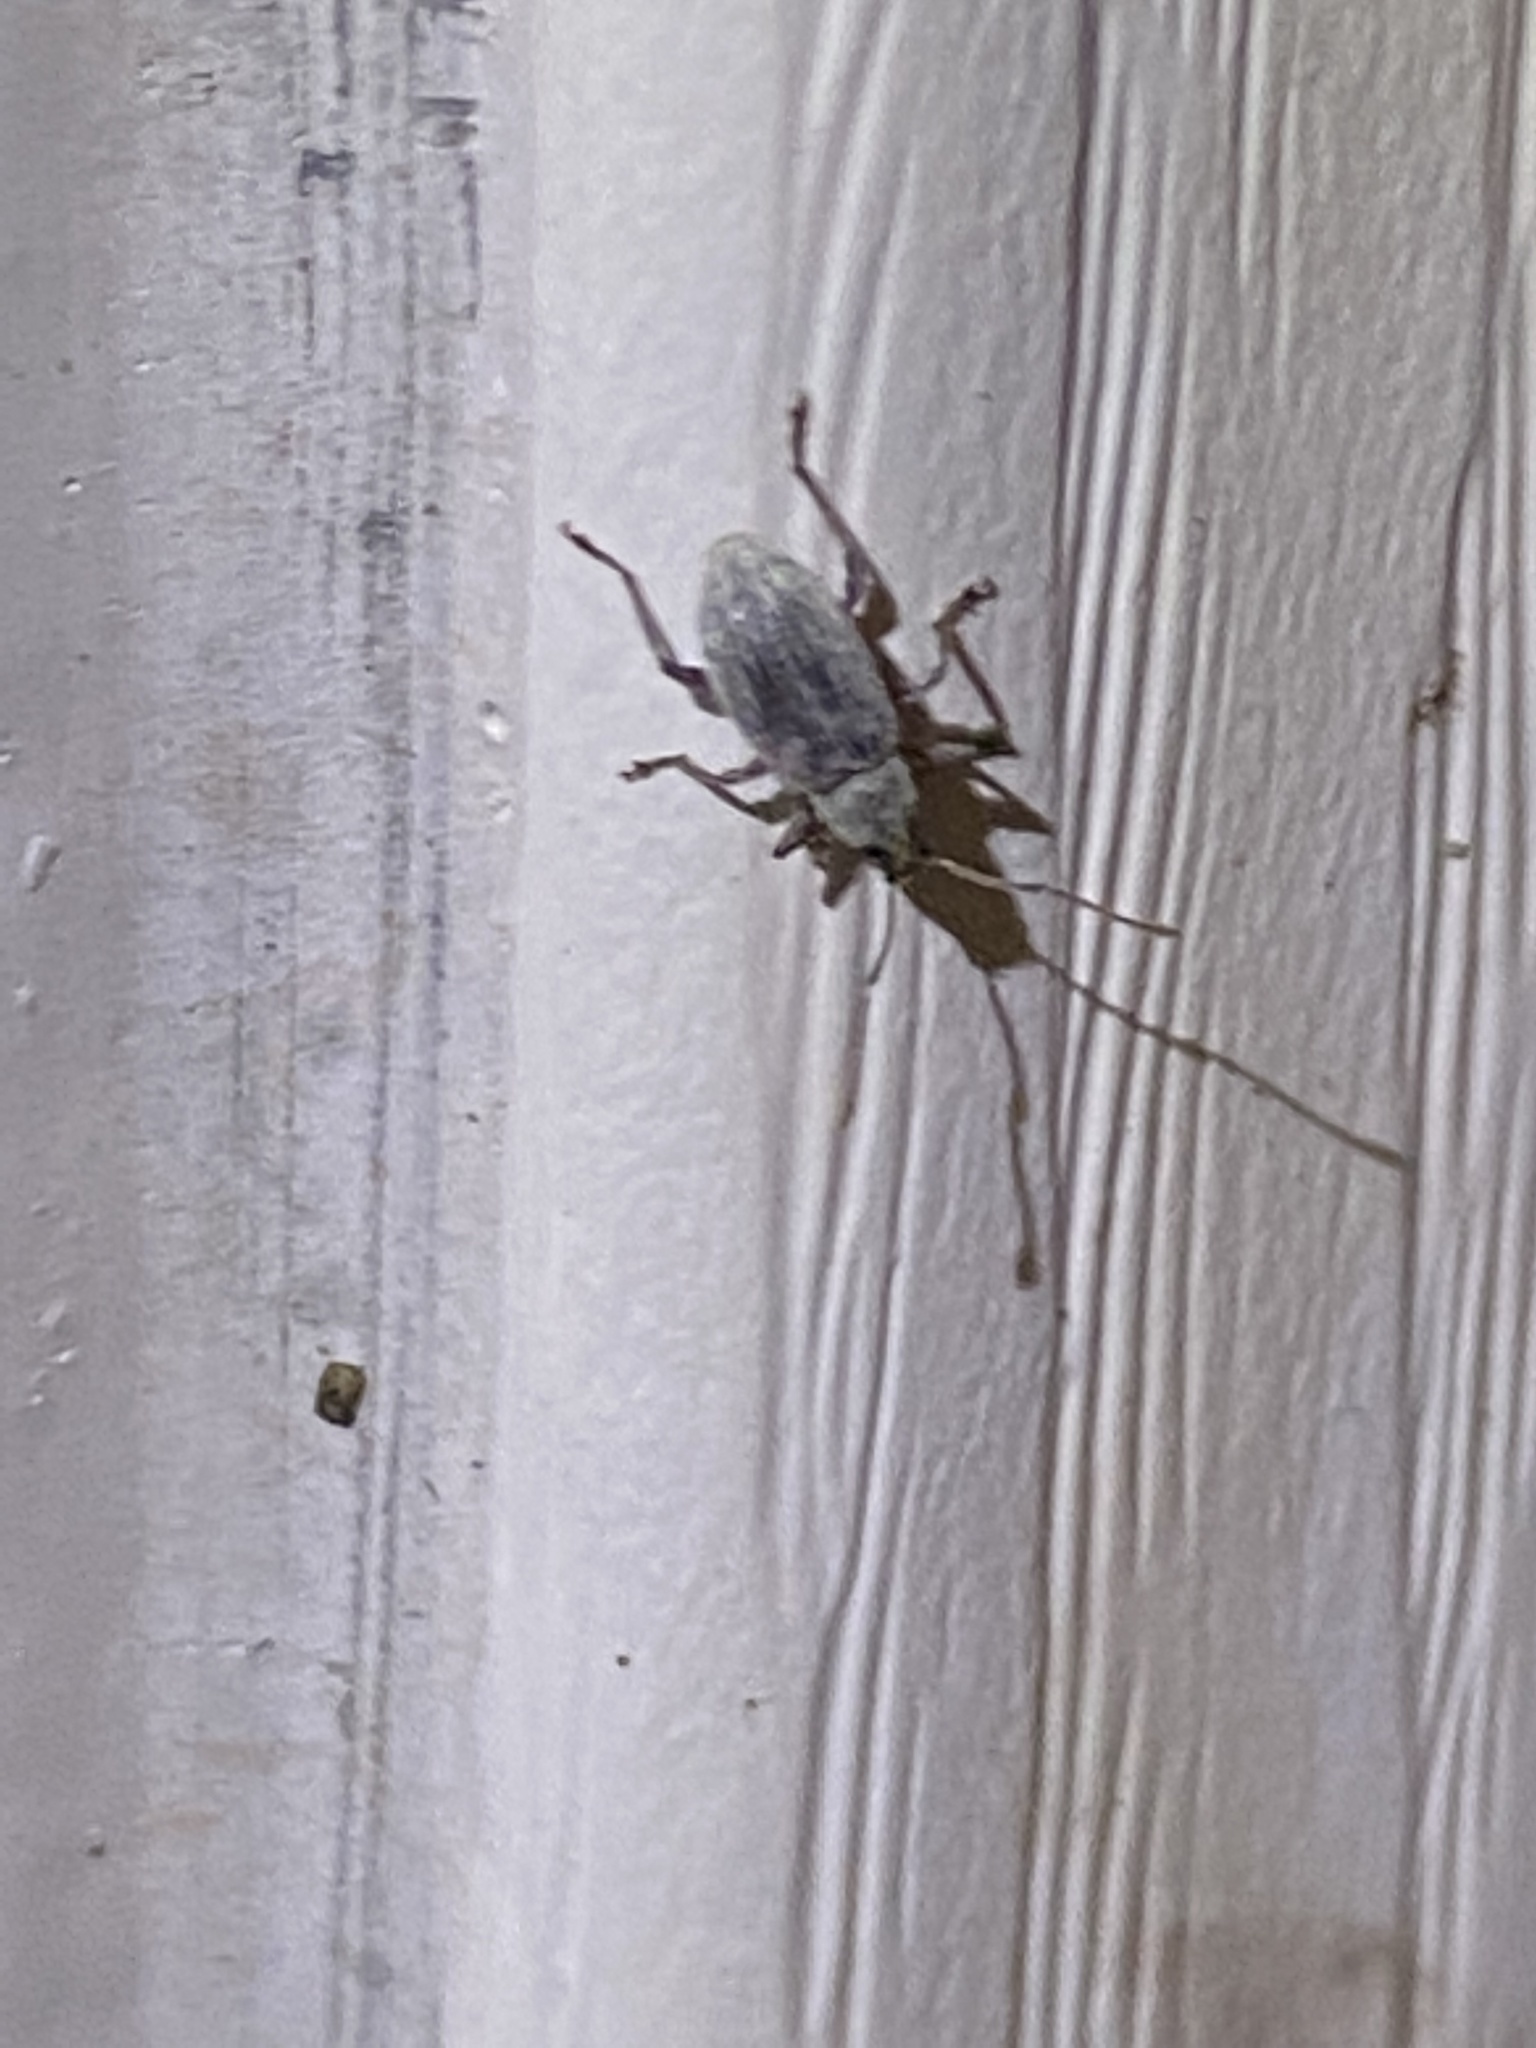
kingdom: Animalia
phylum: Arthropoda
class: Insecta
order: Coleoptera
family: Curculionidae
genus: Cyrtepistomus
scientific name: Cyrtepistomus castaneus
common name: Weevil
